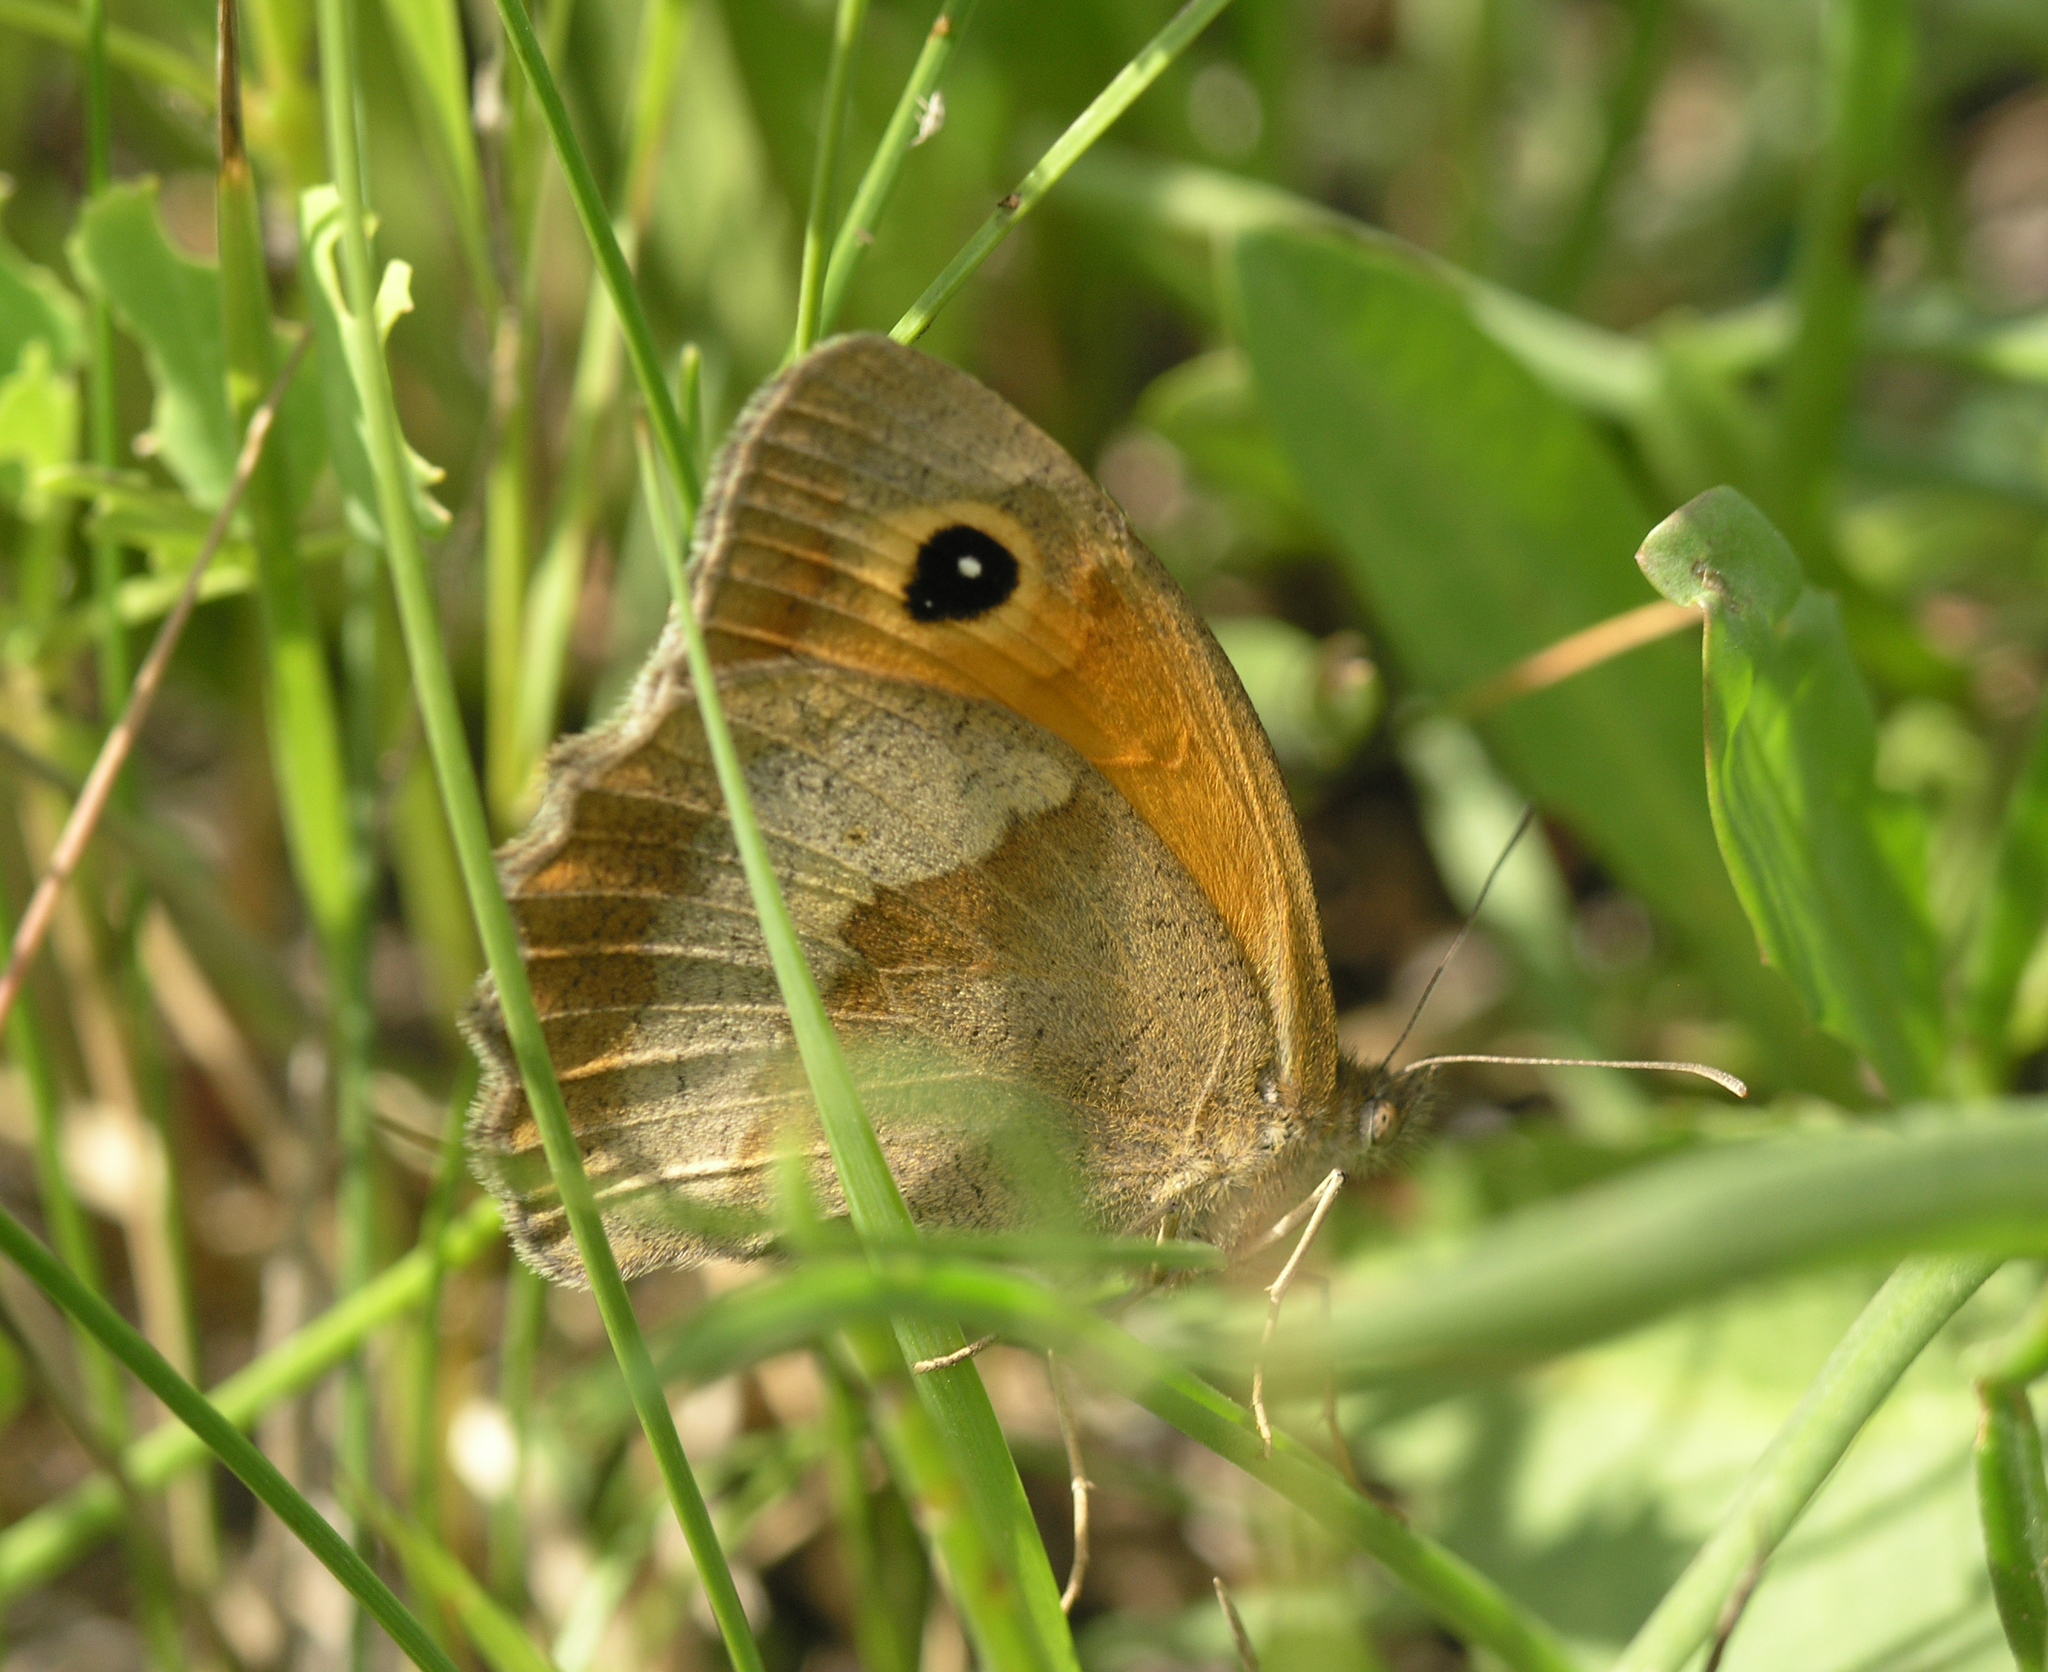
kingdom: Animalia
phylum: Arthropoda
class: Insecta
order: Lepidoptera
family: Nymphalidae
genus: Maniola
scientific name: Maniola jurtina
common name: Meadow brown
